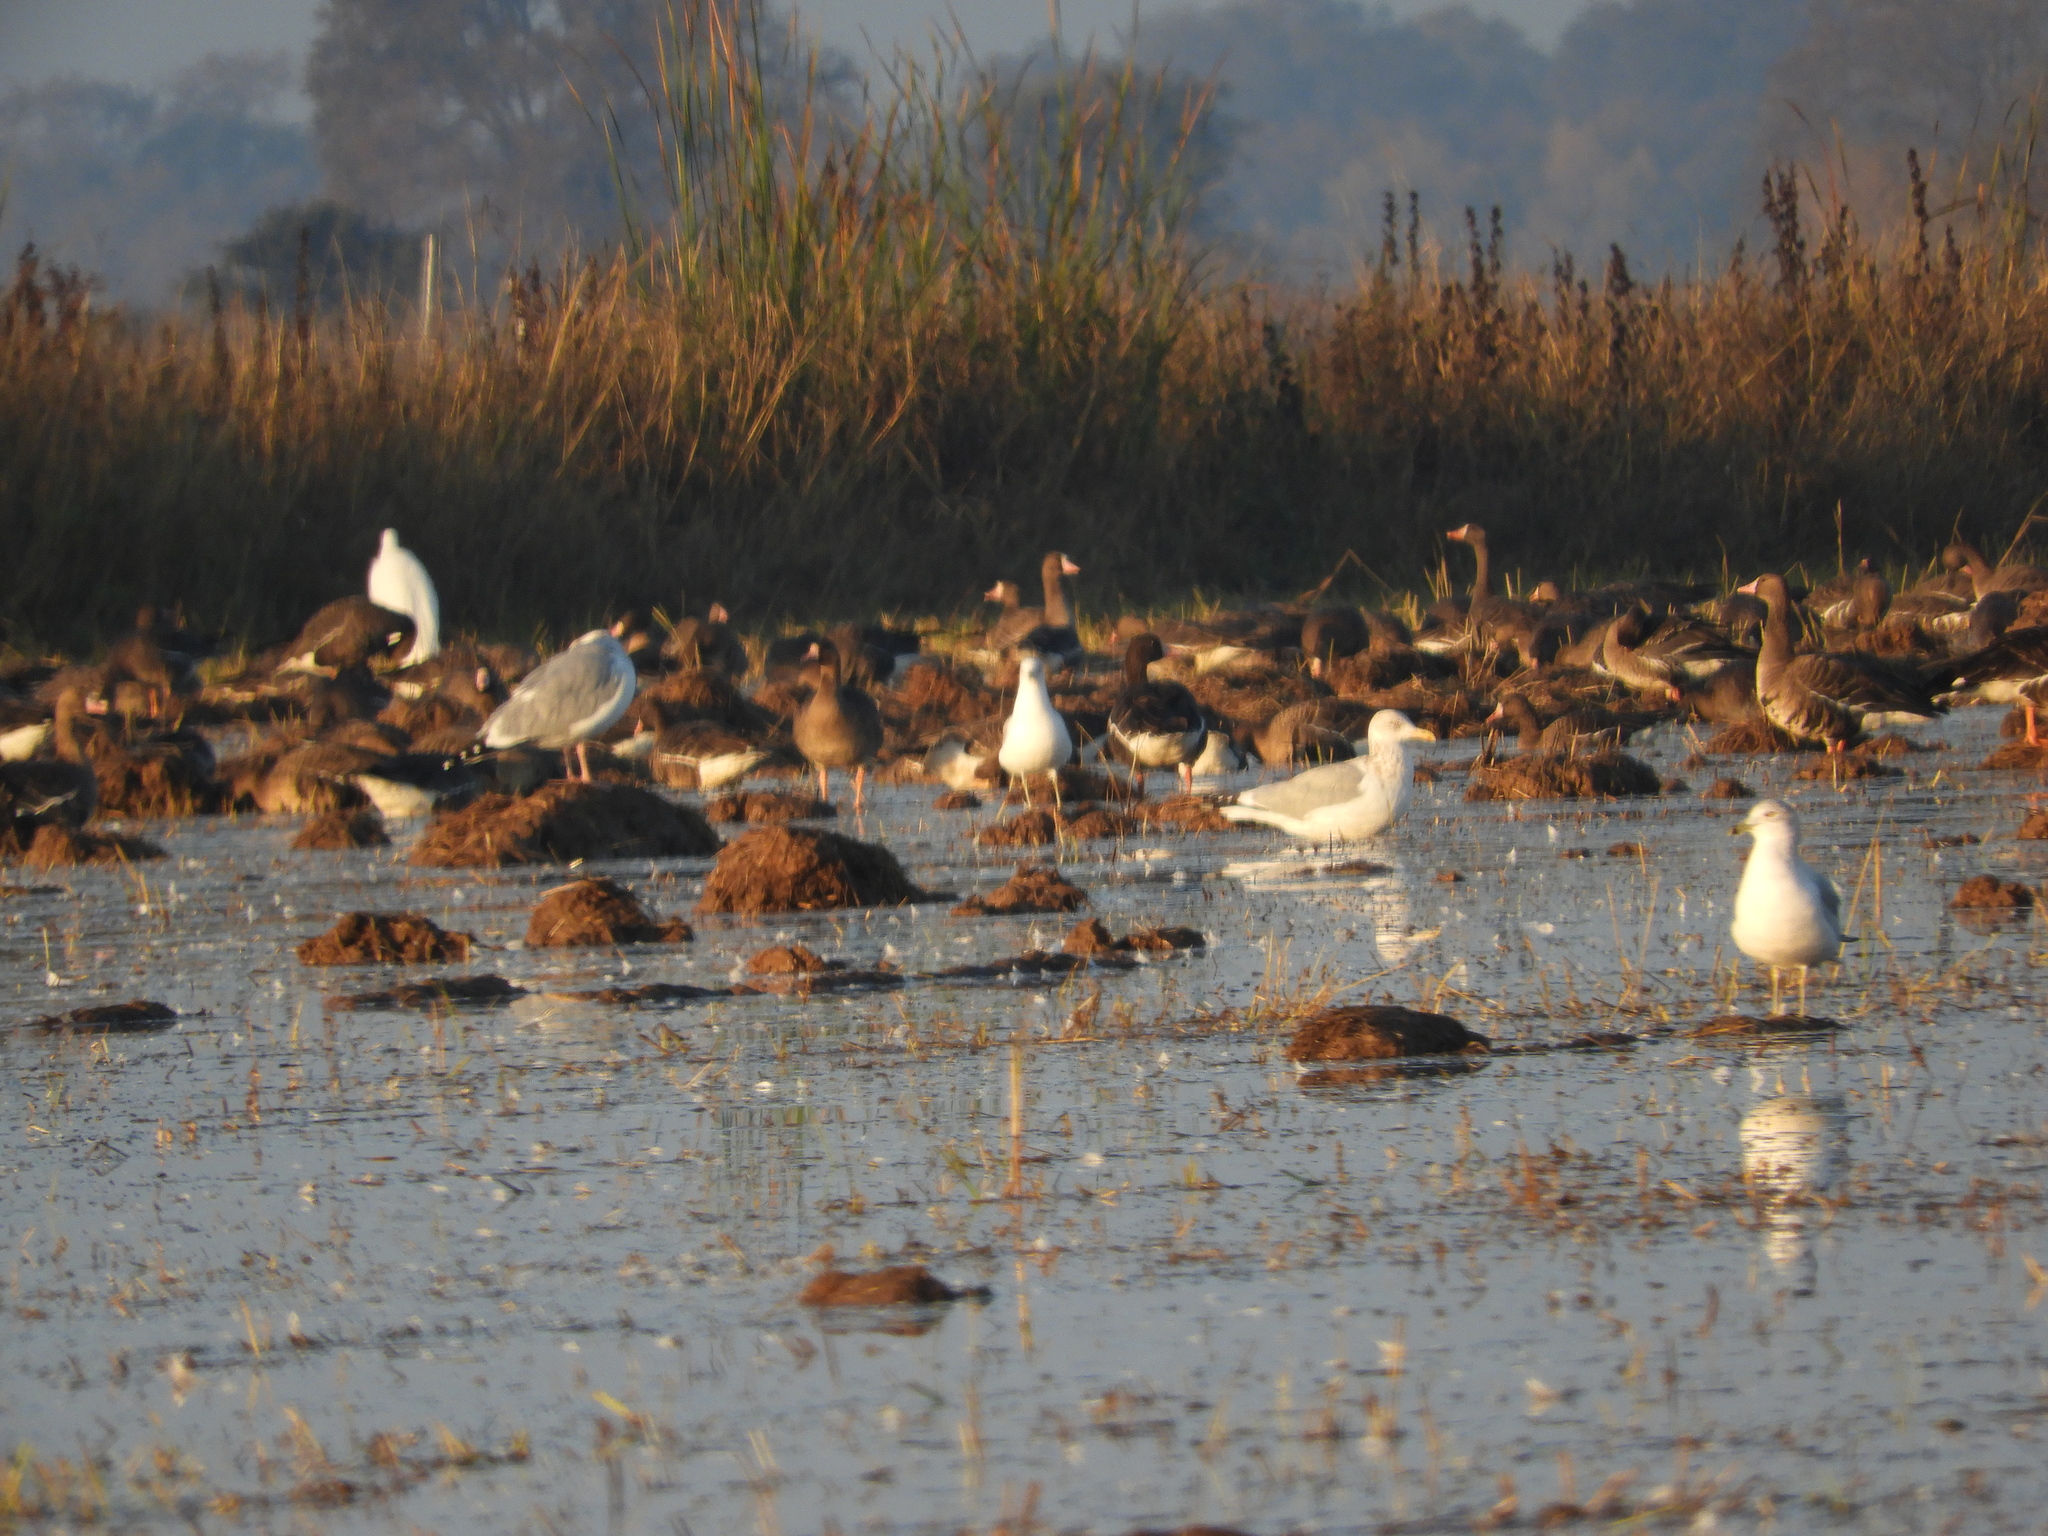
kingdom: Animalia
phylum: Chordata
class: Aves
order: Charadriiformes
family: Laridae
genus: Larus
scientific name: Larus delawarensis
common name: Ring-billed gull
